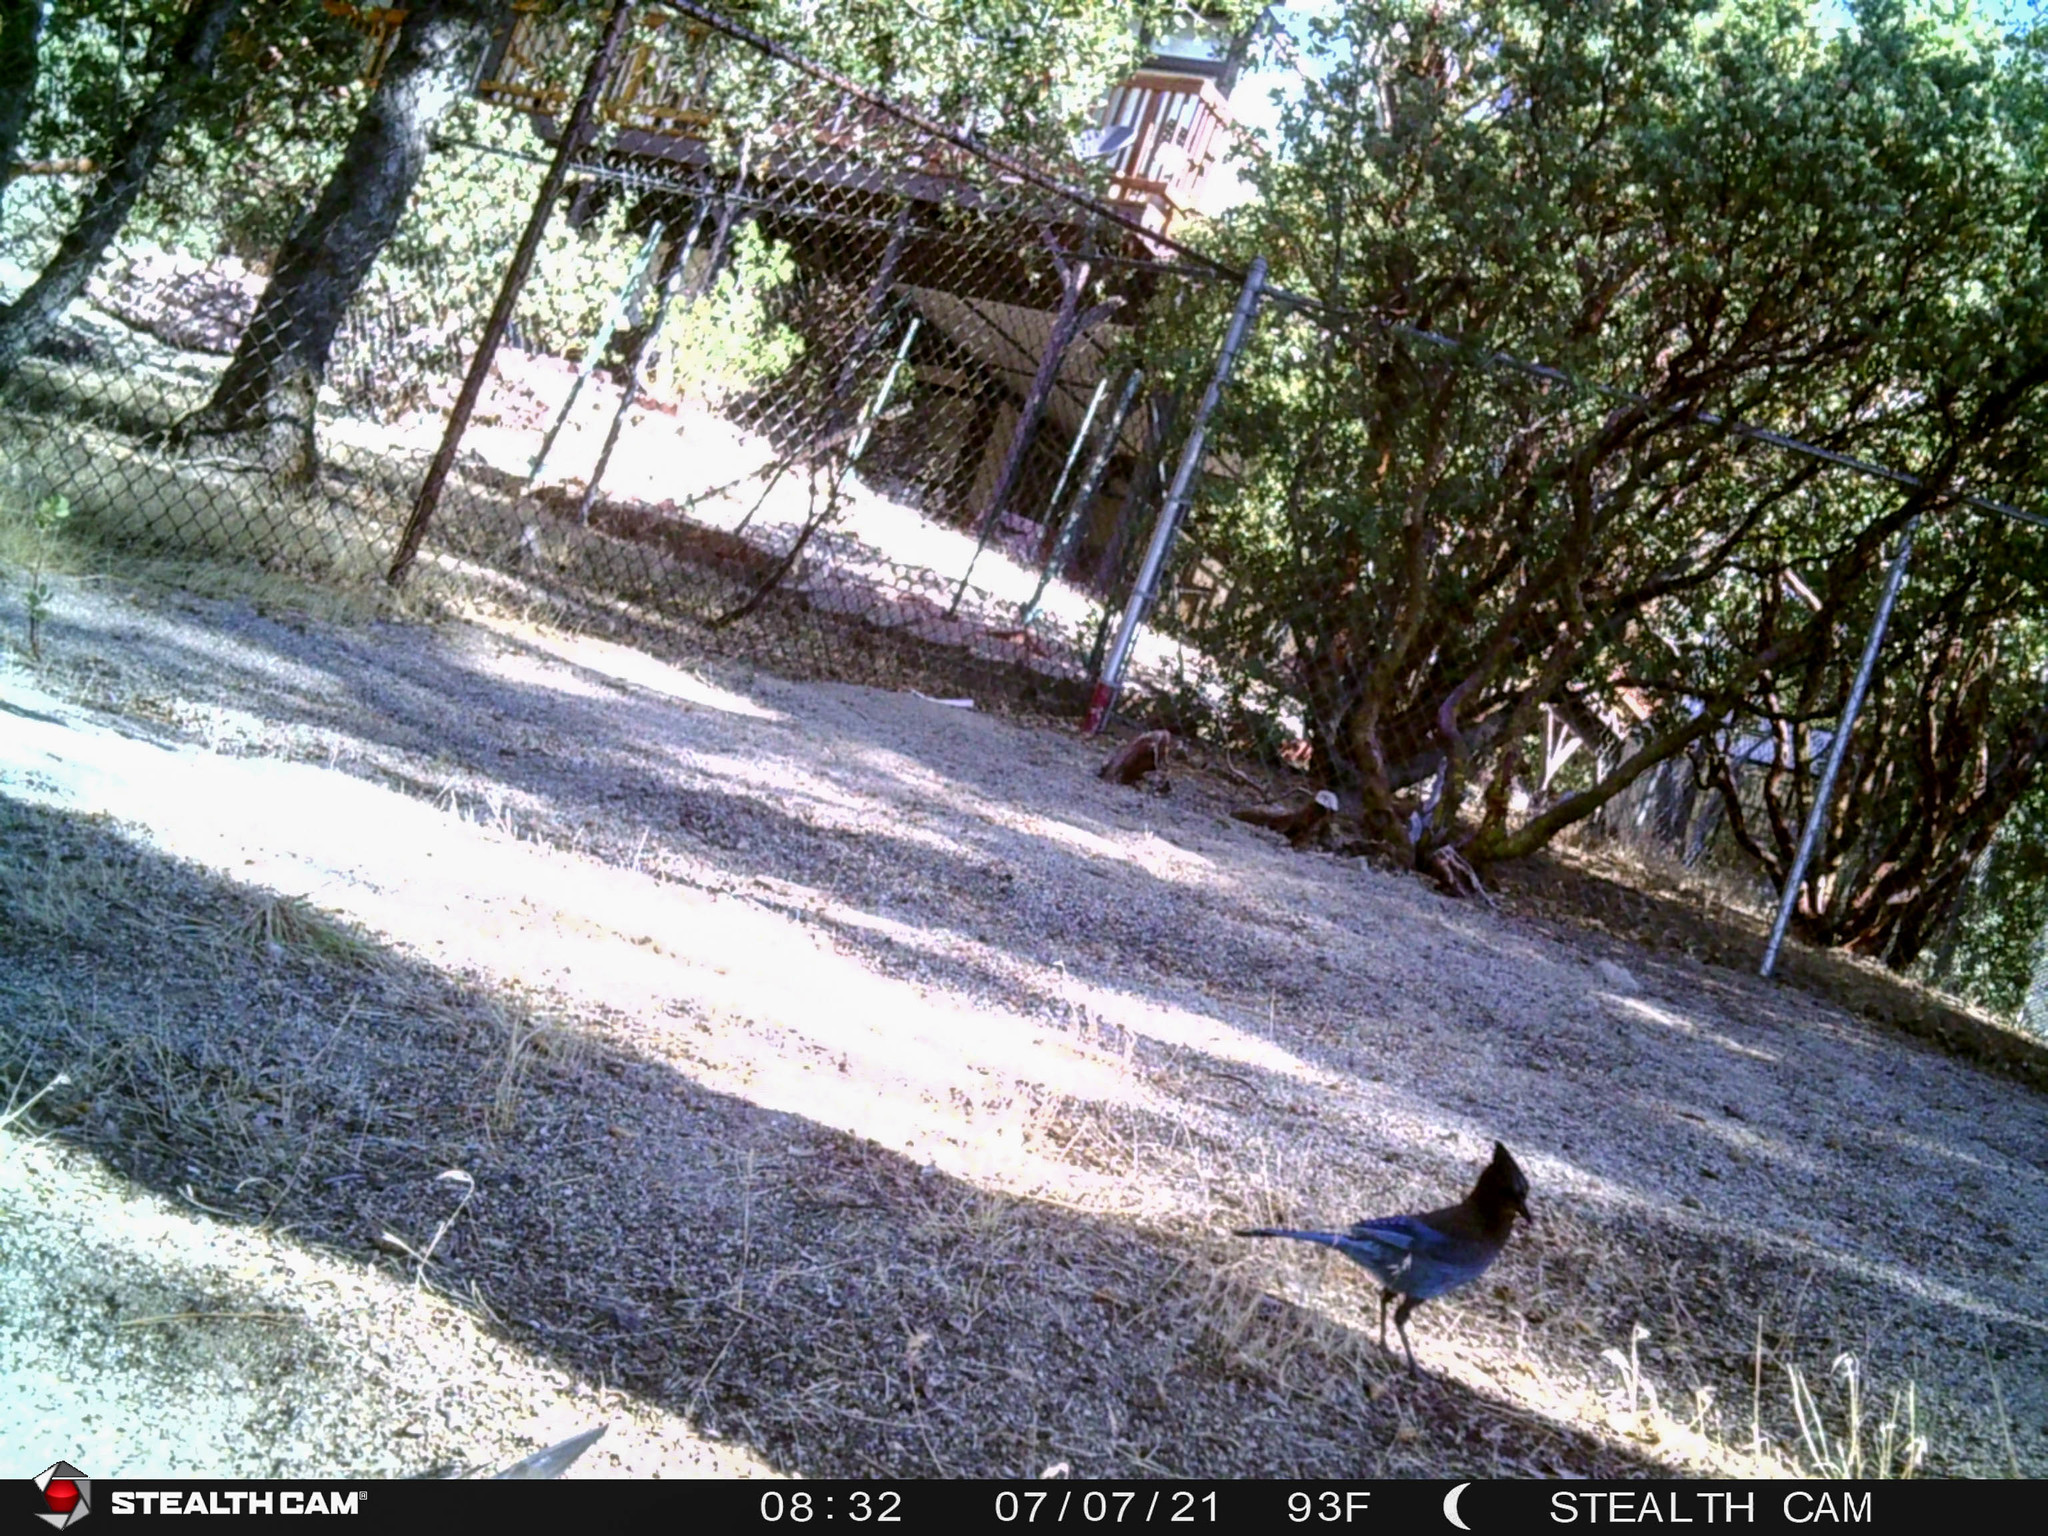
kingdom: Animalia
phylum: Chordata
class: Aves
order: Passeriformes
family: Corvidae
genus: Cyanocitta
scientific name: Cyanocitta stelleri
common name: Steller's jay
